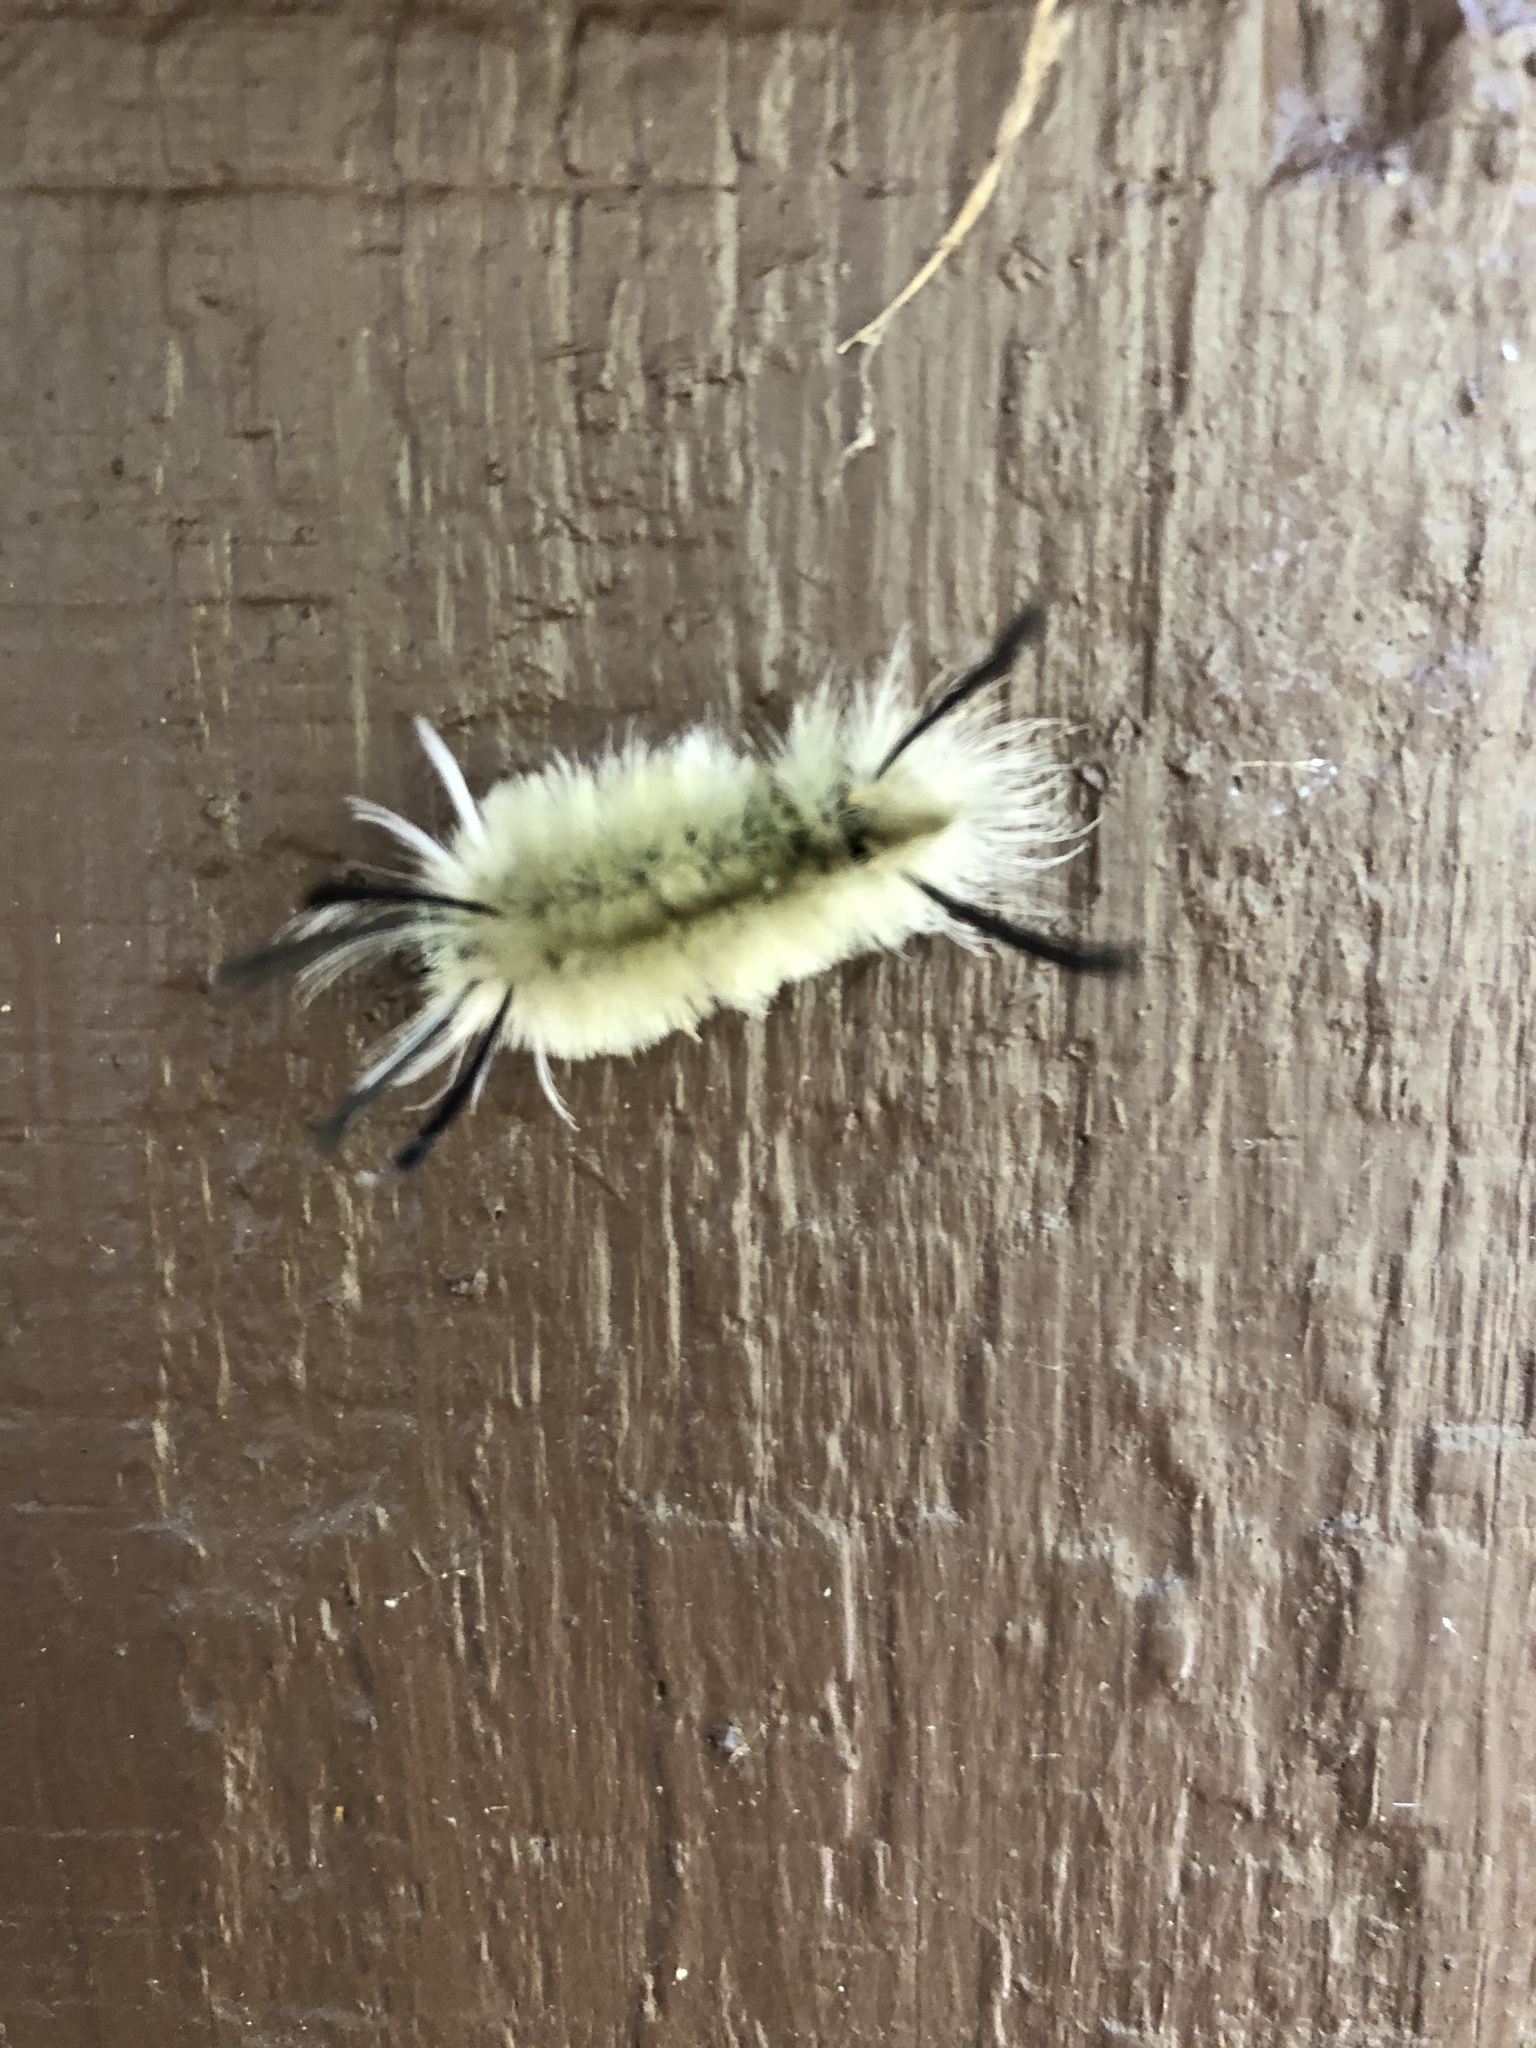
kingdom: Animalia
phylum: Arthropoda
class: Insecta
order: Lepidoptera
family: Erebidae
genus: Halysidota
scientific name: Halysidota tessellaris
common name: Banded tussock moth
